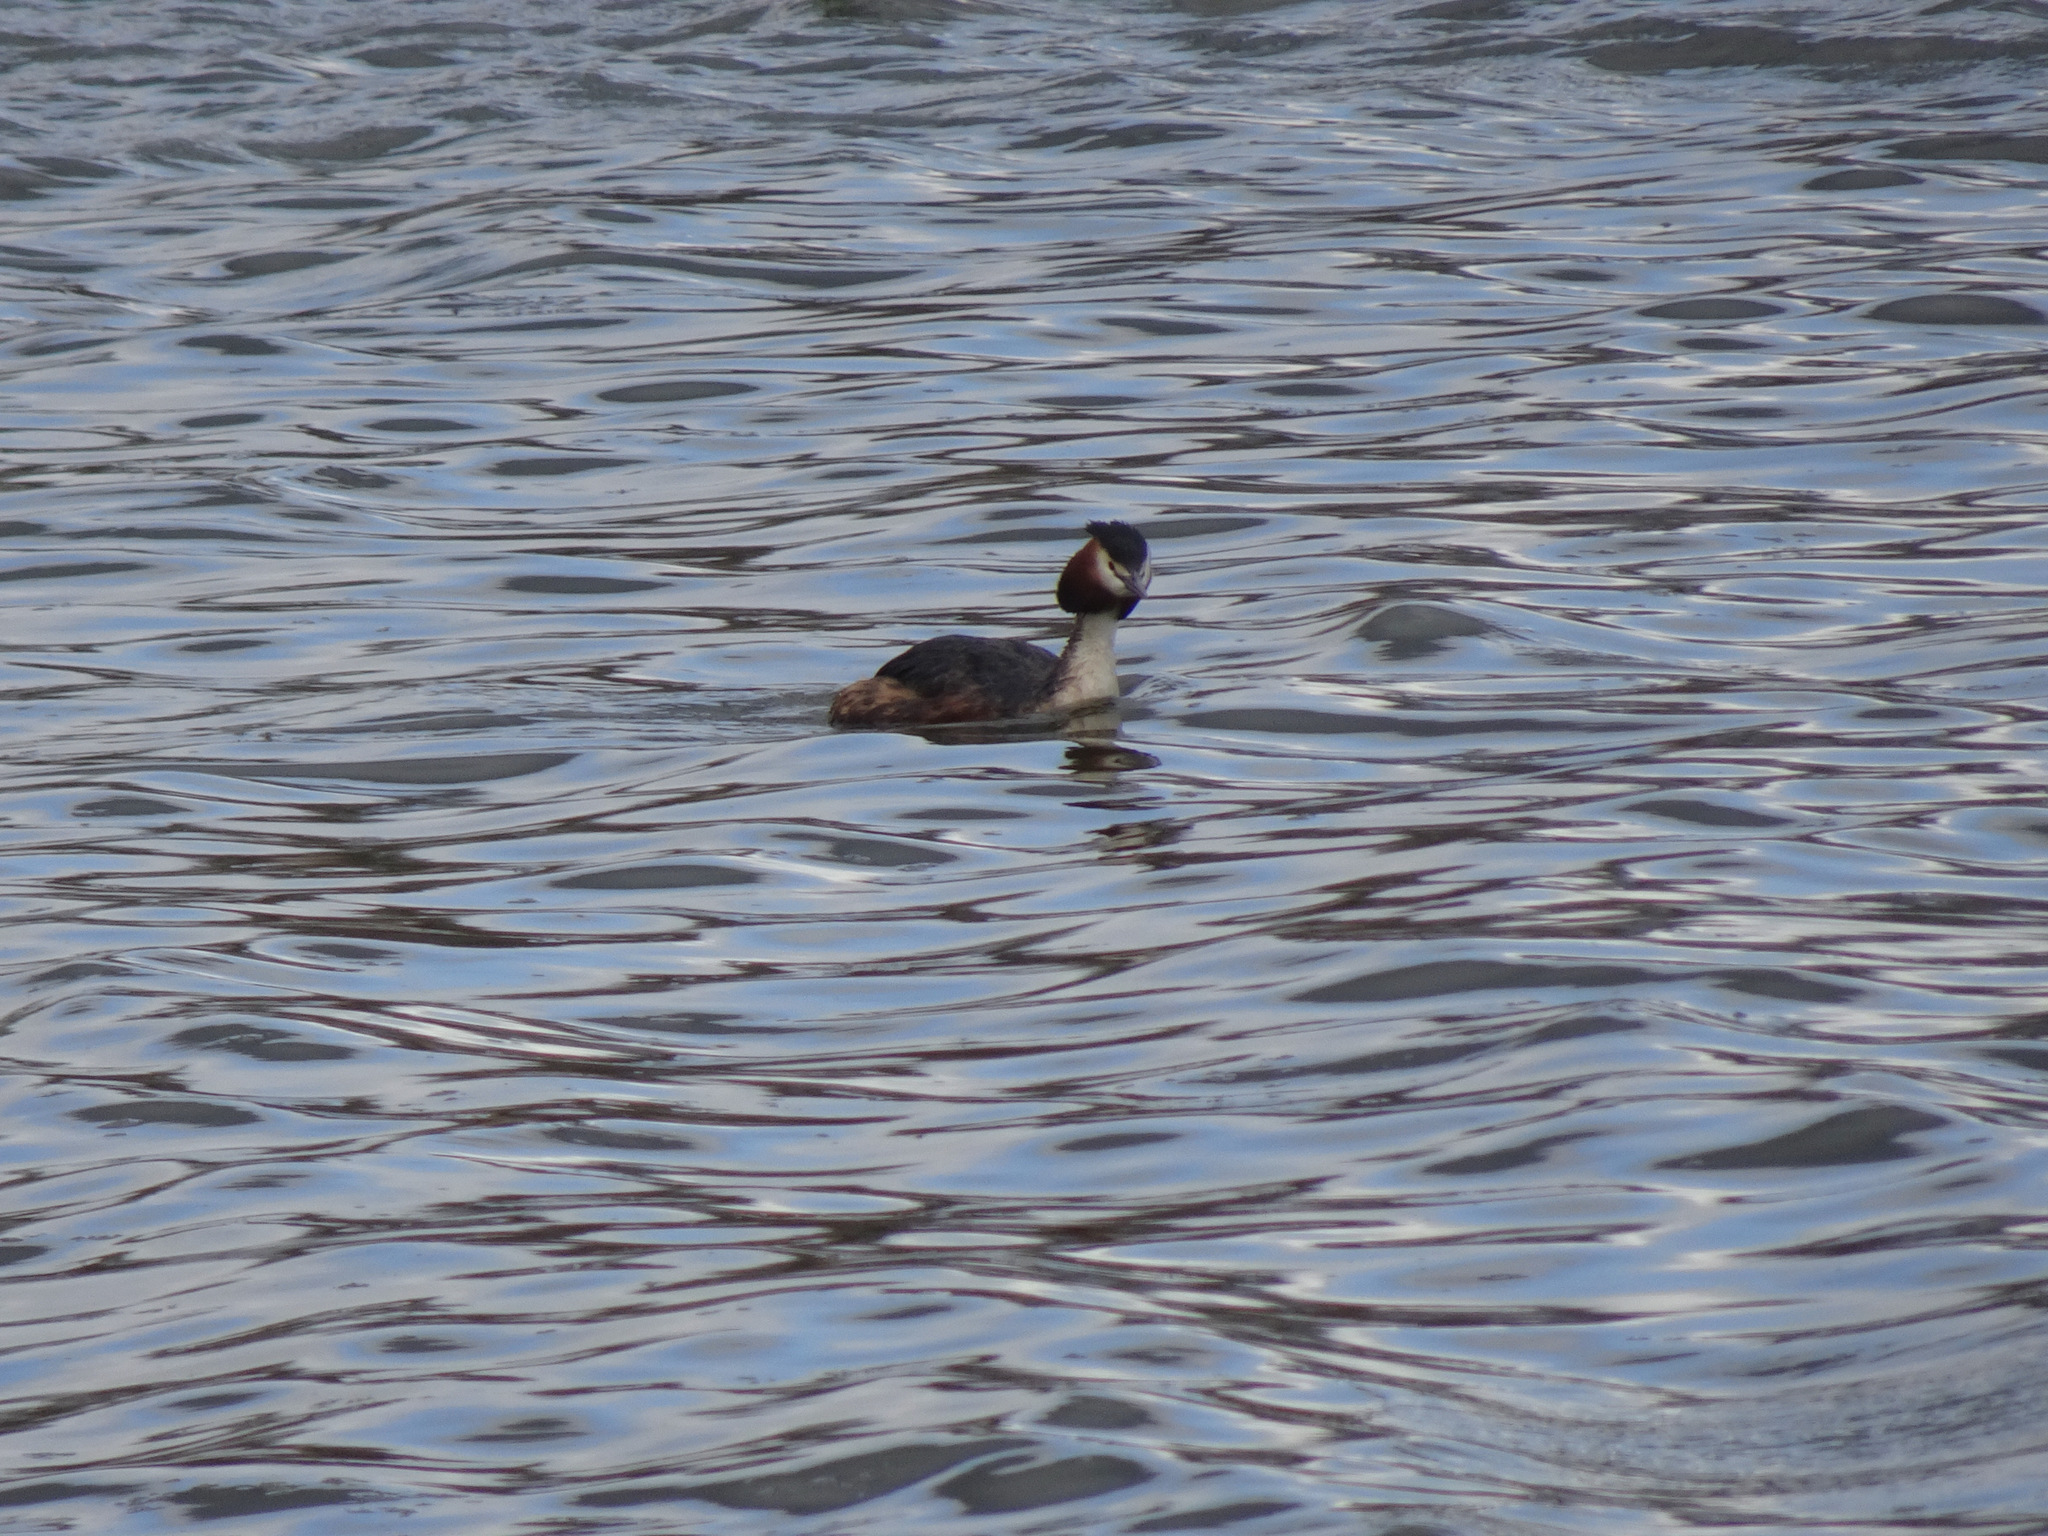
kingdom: Animalia
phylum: Chordata
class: Aves
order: Podicipediformes
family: Podicipedidae
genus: Podiceps
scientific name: Podiceps cristatus
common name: Great crested grebe
